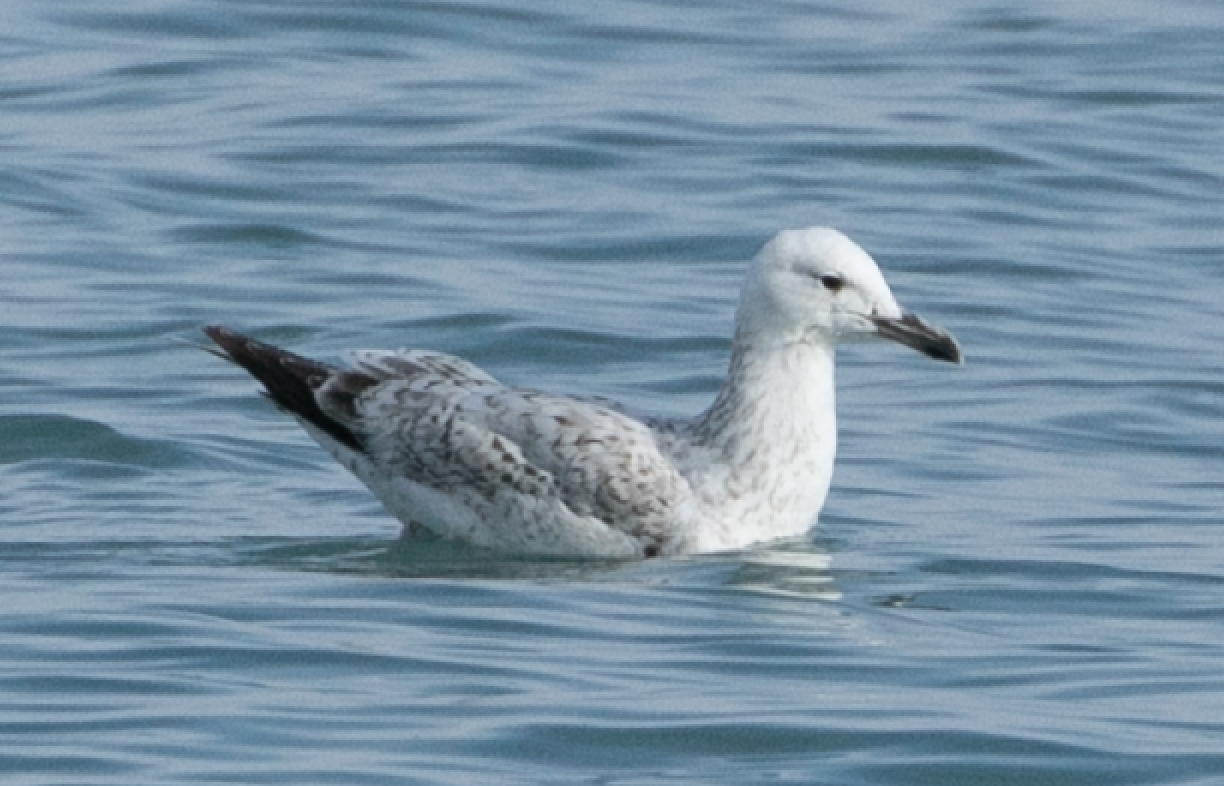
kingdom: Animalia
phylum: Chordata
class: Aves
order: Charadriiformes
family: Laridae
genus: Larus
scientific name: Larus cachinnans
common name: Caspian gull
